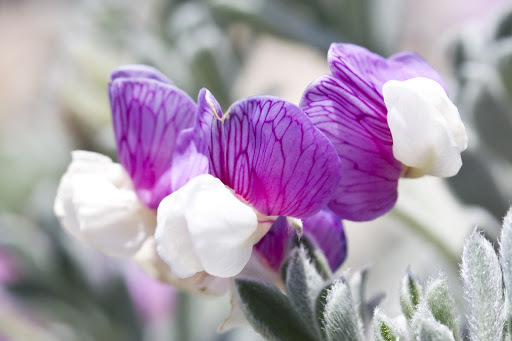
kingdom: Plantae
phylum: Tracheophyta
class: Magnoliopsida
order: Fabales
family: Fabaceae
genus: Lathyrus
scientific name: Lathyrus littoralis
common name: Dune sweet pea
